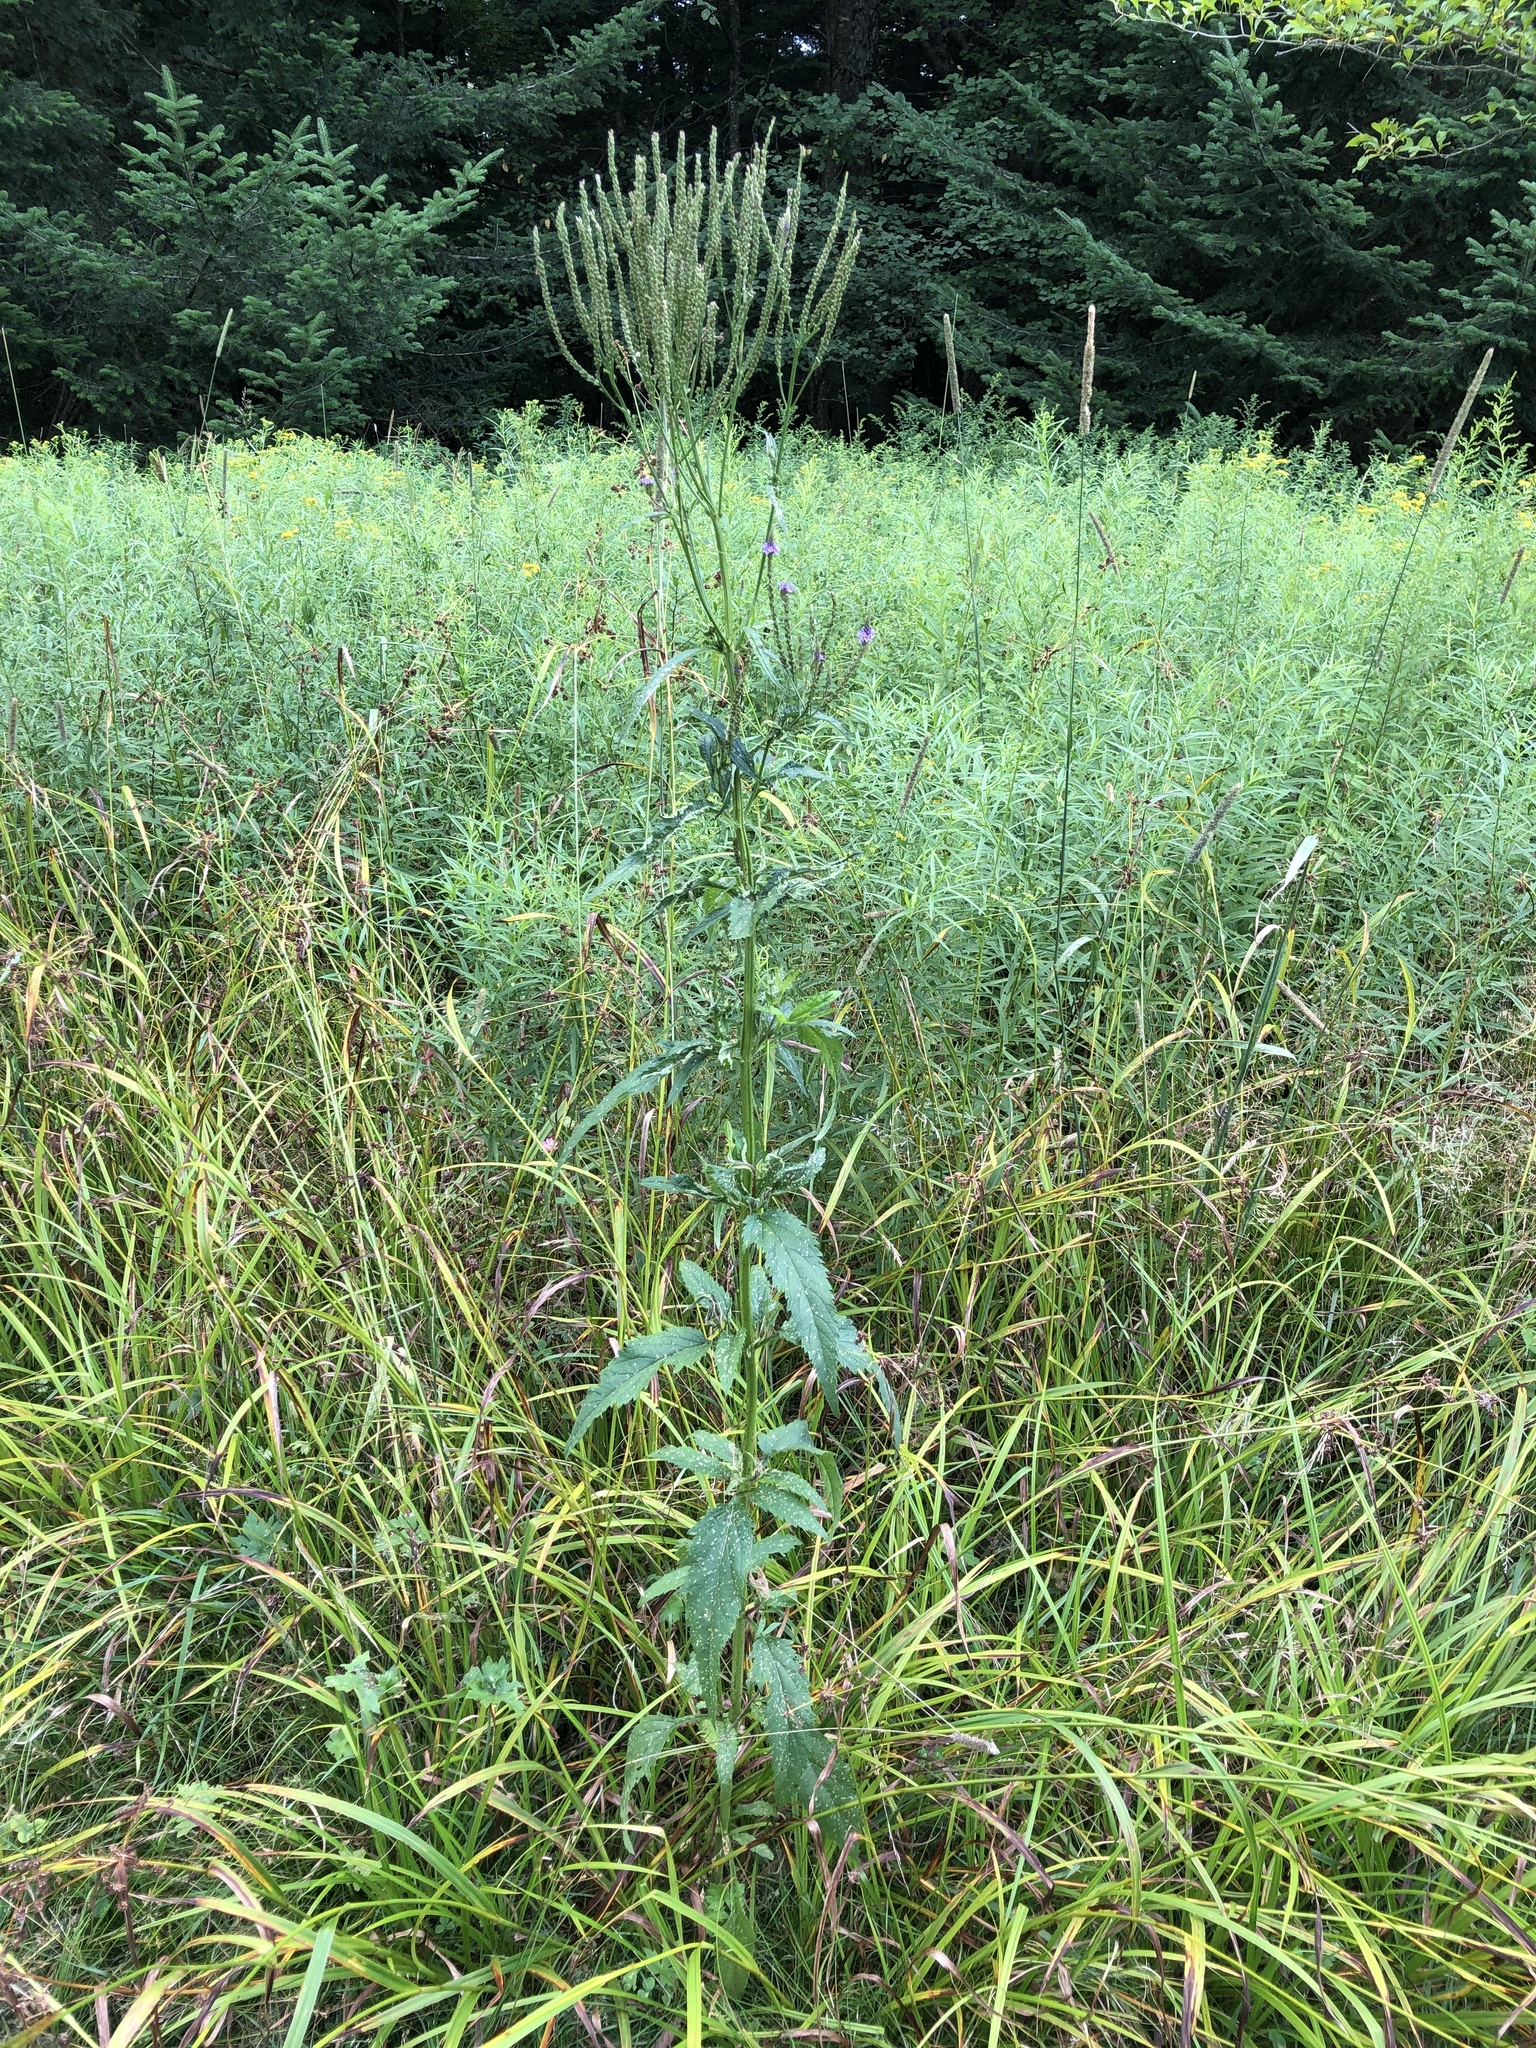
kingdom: Plantae
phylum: Tracheophyta
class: Magnoliopsida
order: Lamiales
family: Verbenaceae
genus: Verbena
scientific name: Verbena hastata
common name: American blue vervain
